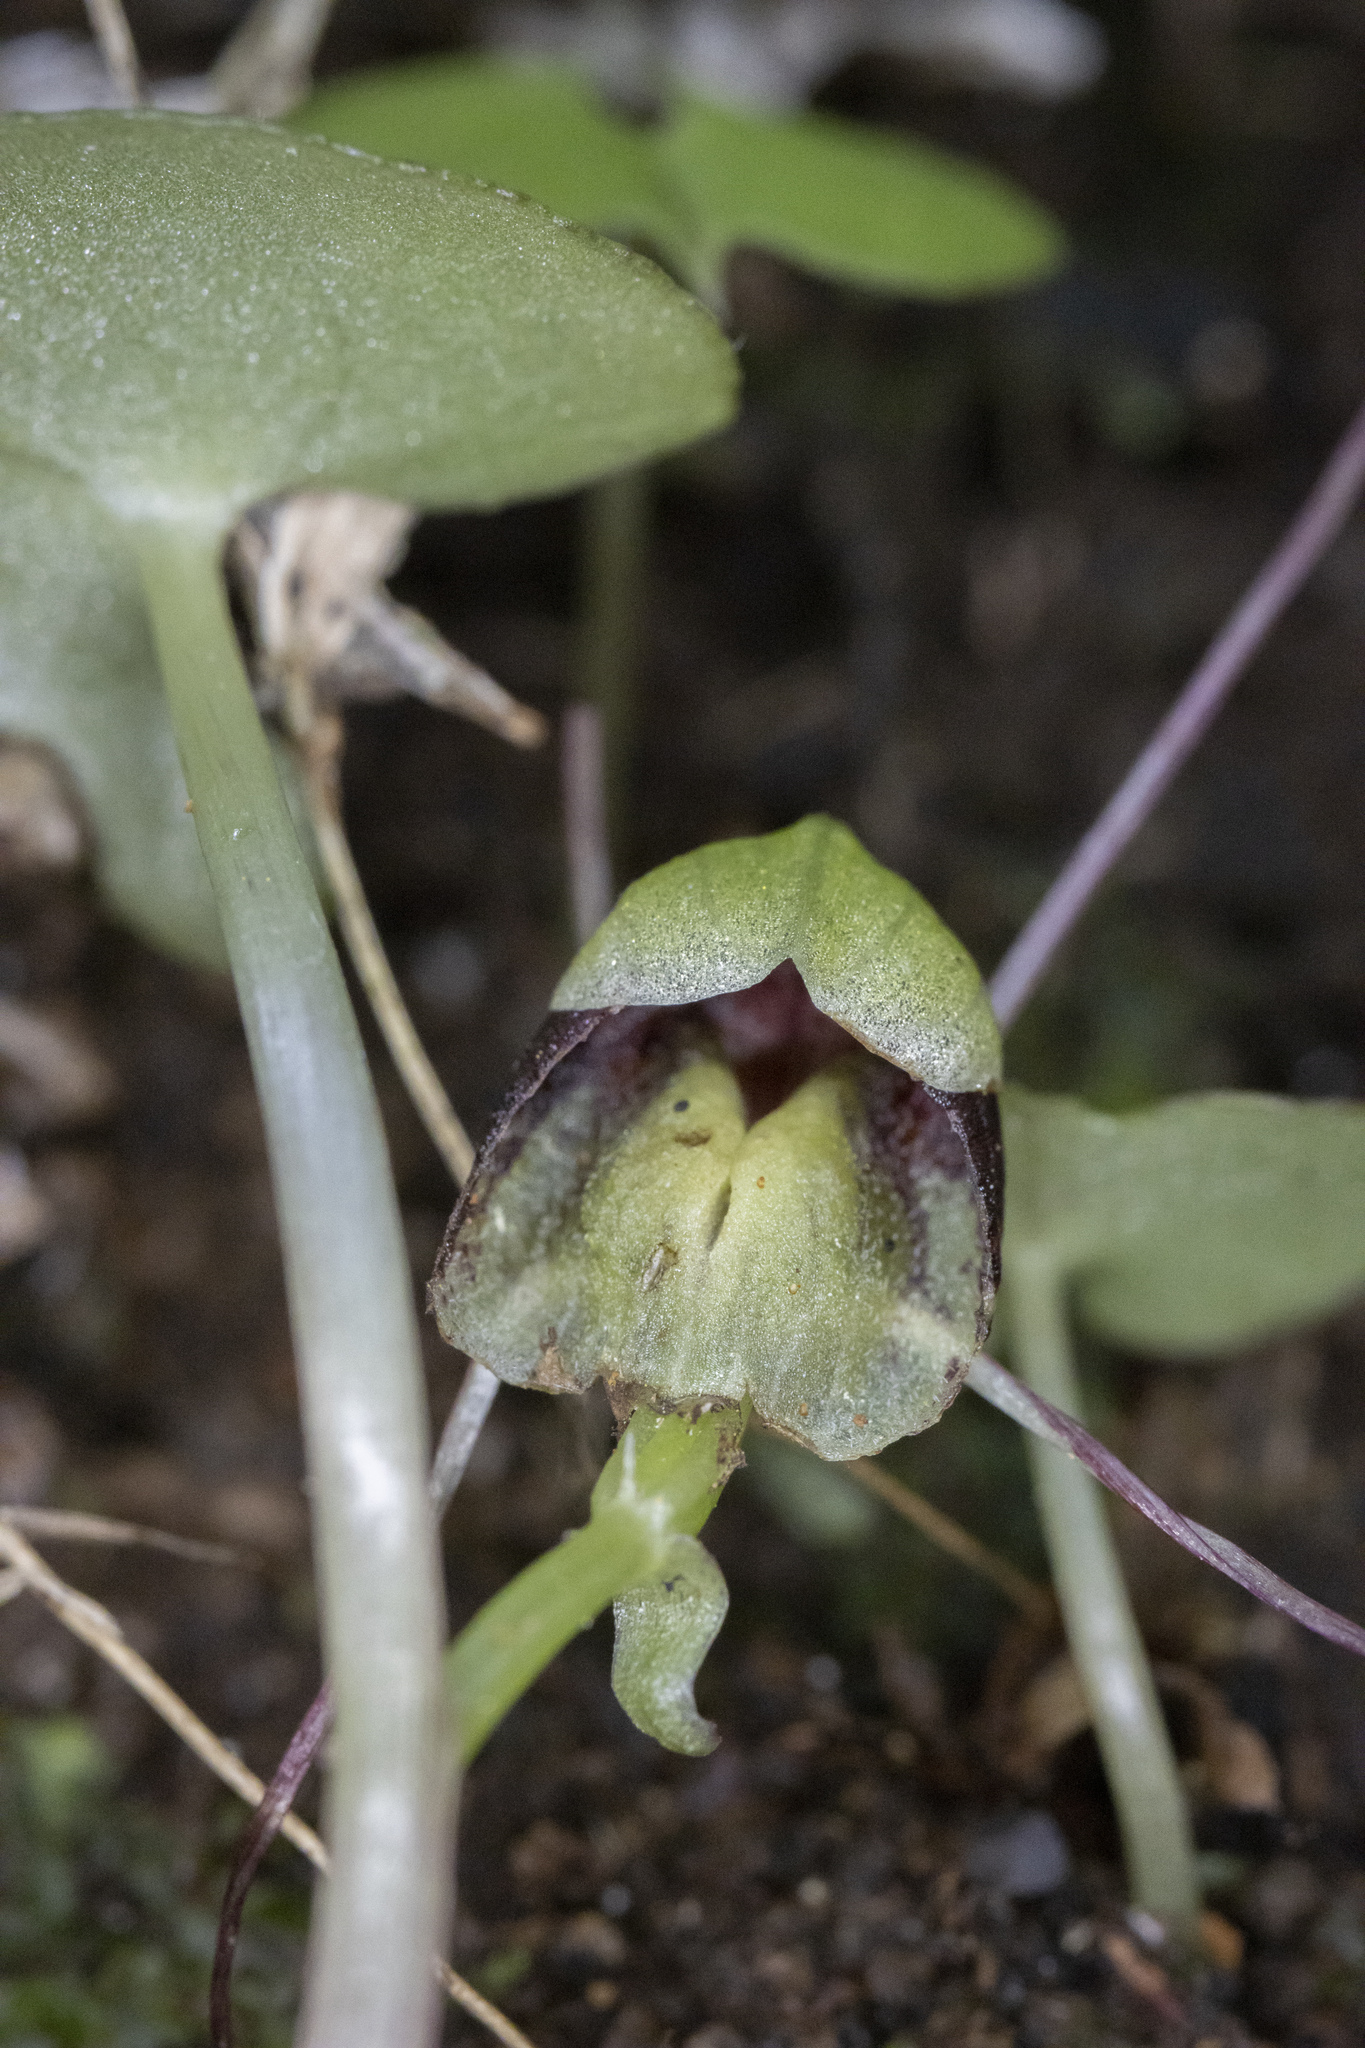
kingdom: Plantae
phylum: Tracheophyta
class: Liliopsida
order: Asparagales
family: Orchidaceae
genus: Corybas
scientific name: Corybas vitreus
